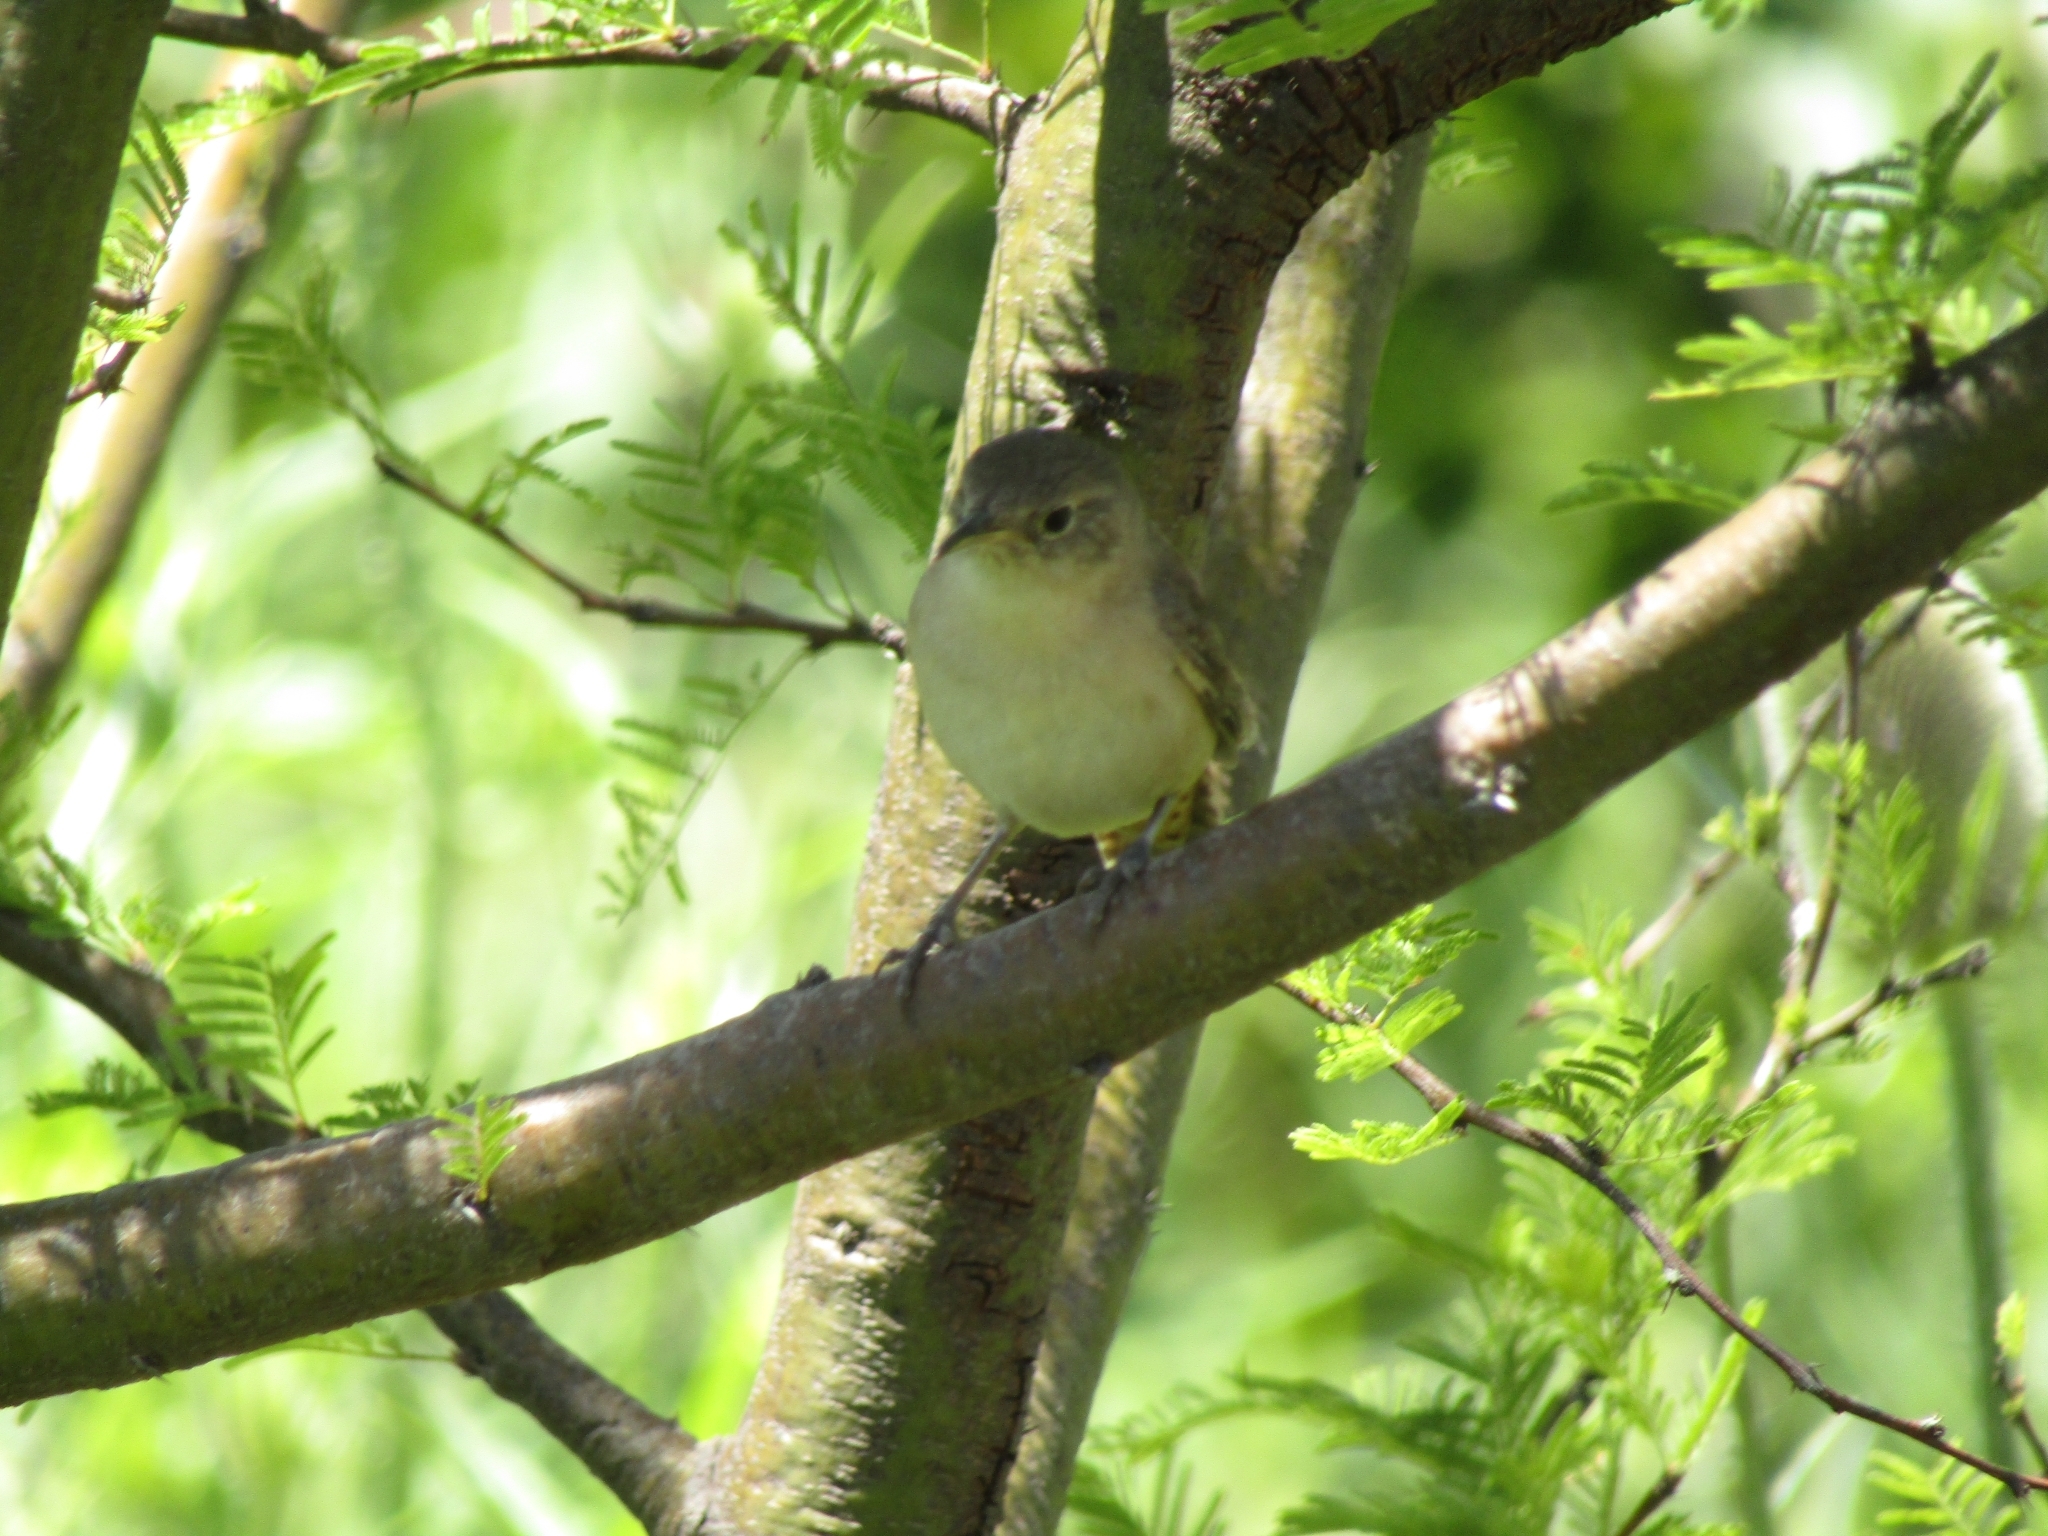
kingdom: Animalia
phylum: Chordata
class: Aves
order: Passeriformes
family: Troglodytidae
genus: Troglodytes
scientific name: Troglodytes aedon
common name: House wren
